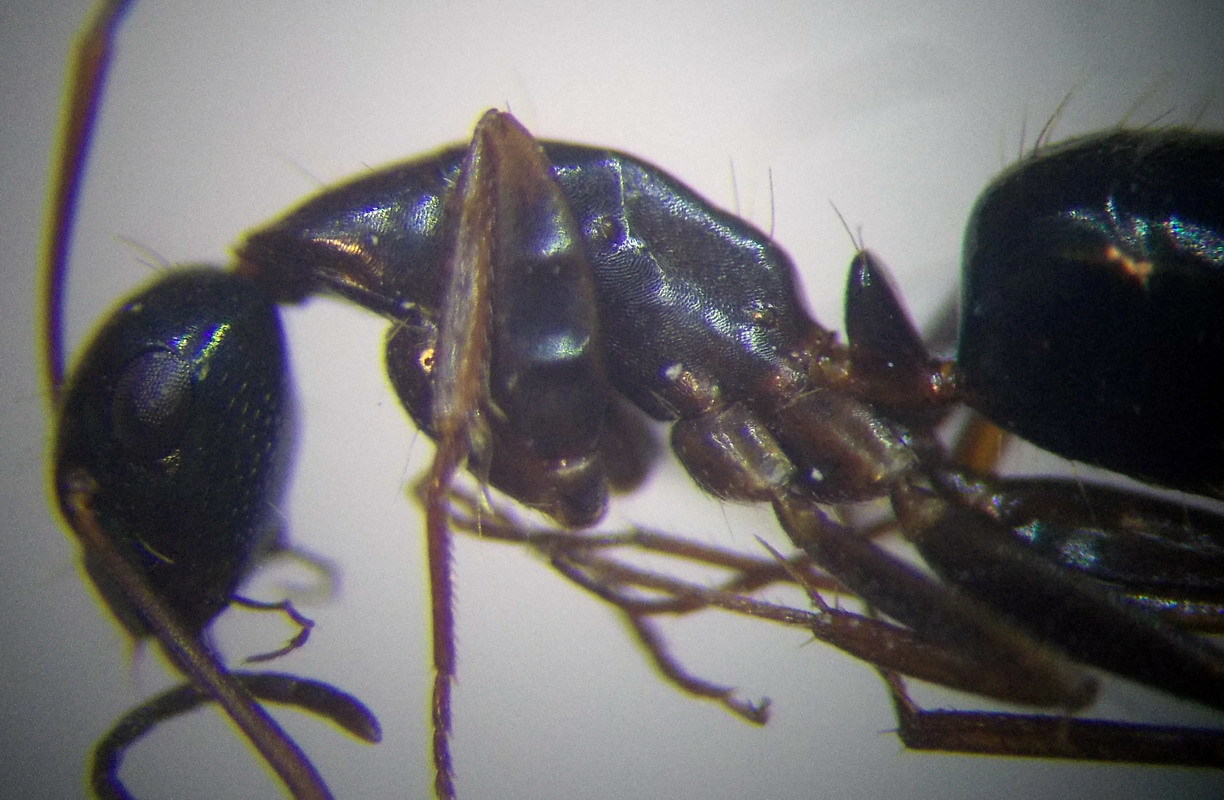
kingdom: Animalia
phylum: Arthropoda
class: Insecta
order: Hymenoptera
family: Formicidae
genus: Camponotus
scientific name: Camponotus aethiops
